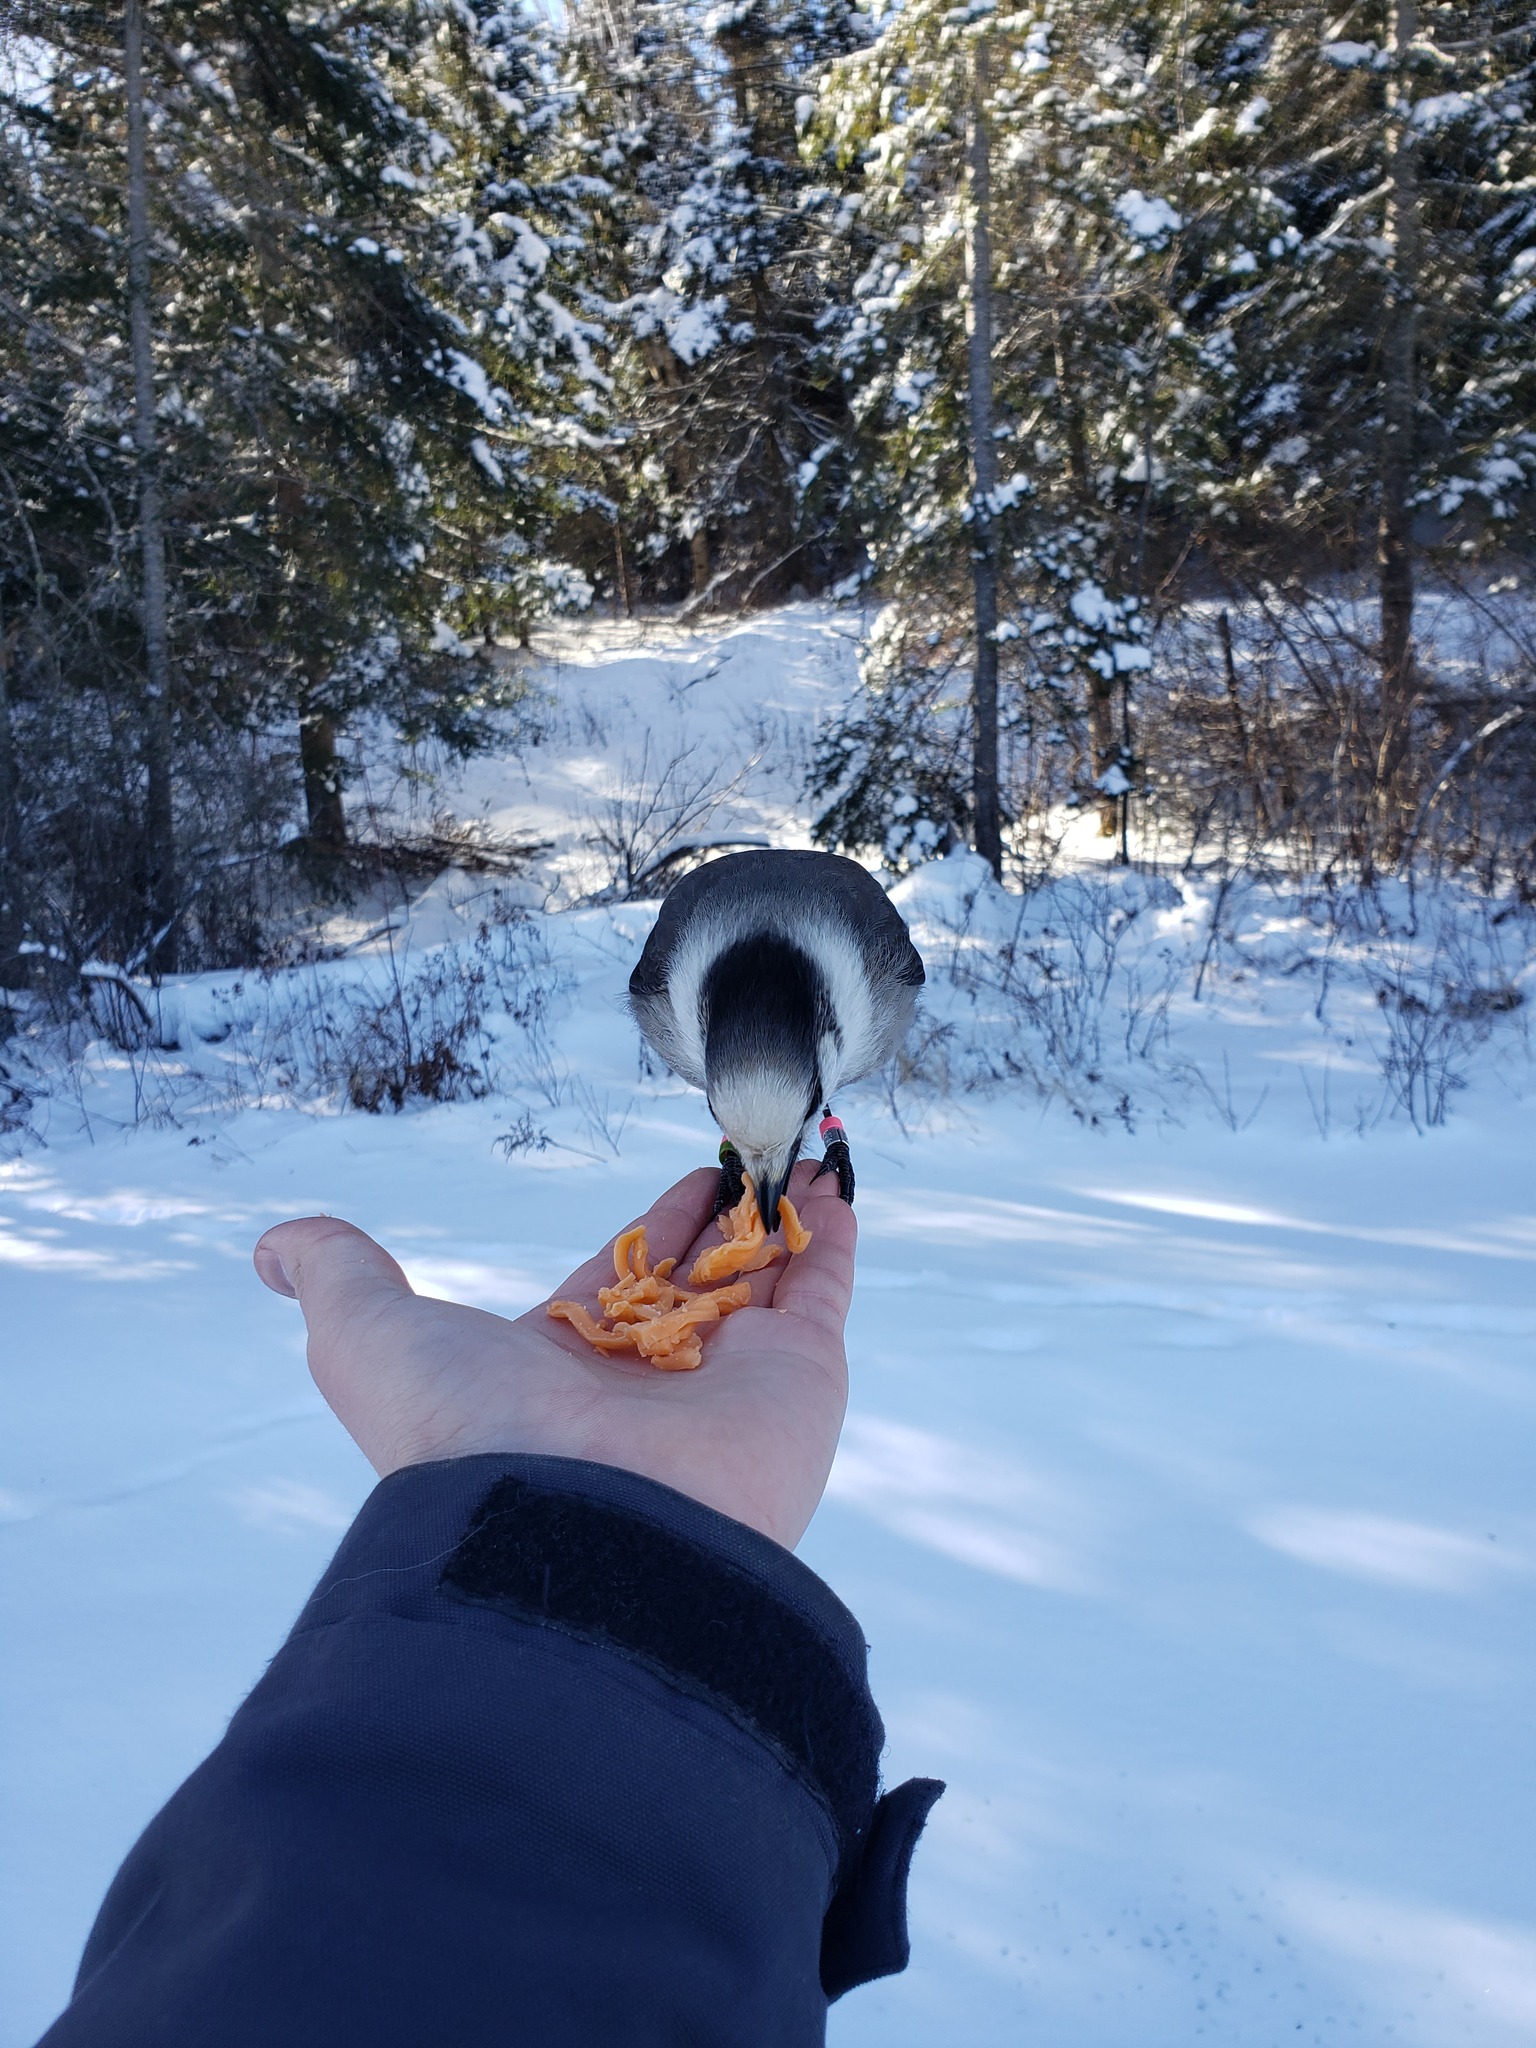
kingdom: Animalia
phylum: Chordata
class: Aves
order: Passeriformes
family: Corvidae
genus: Perisoreus
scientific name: Perisoreus canadensis
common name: Gray jay
